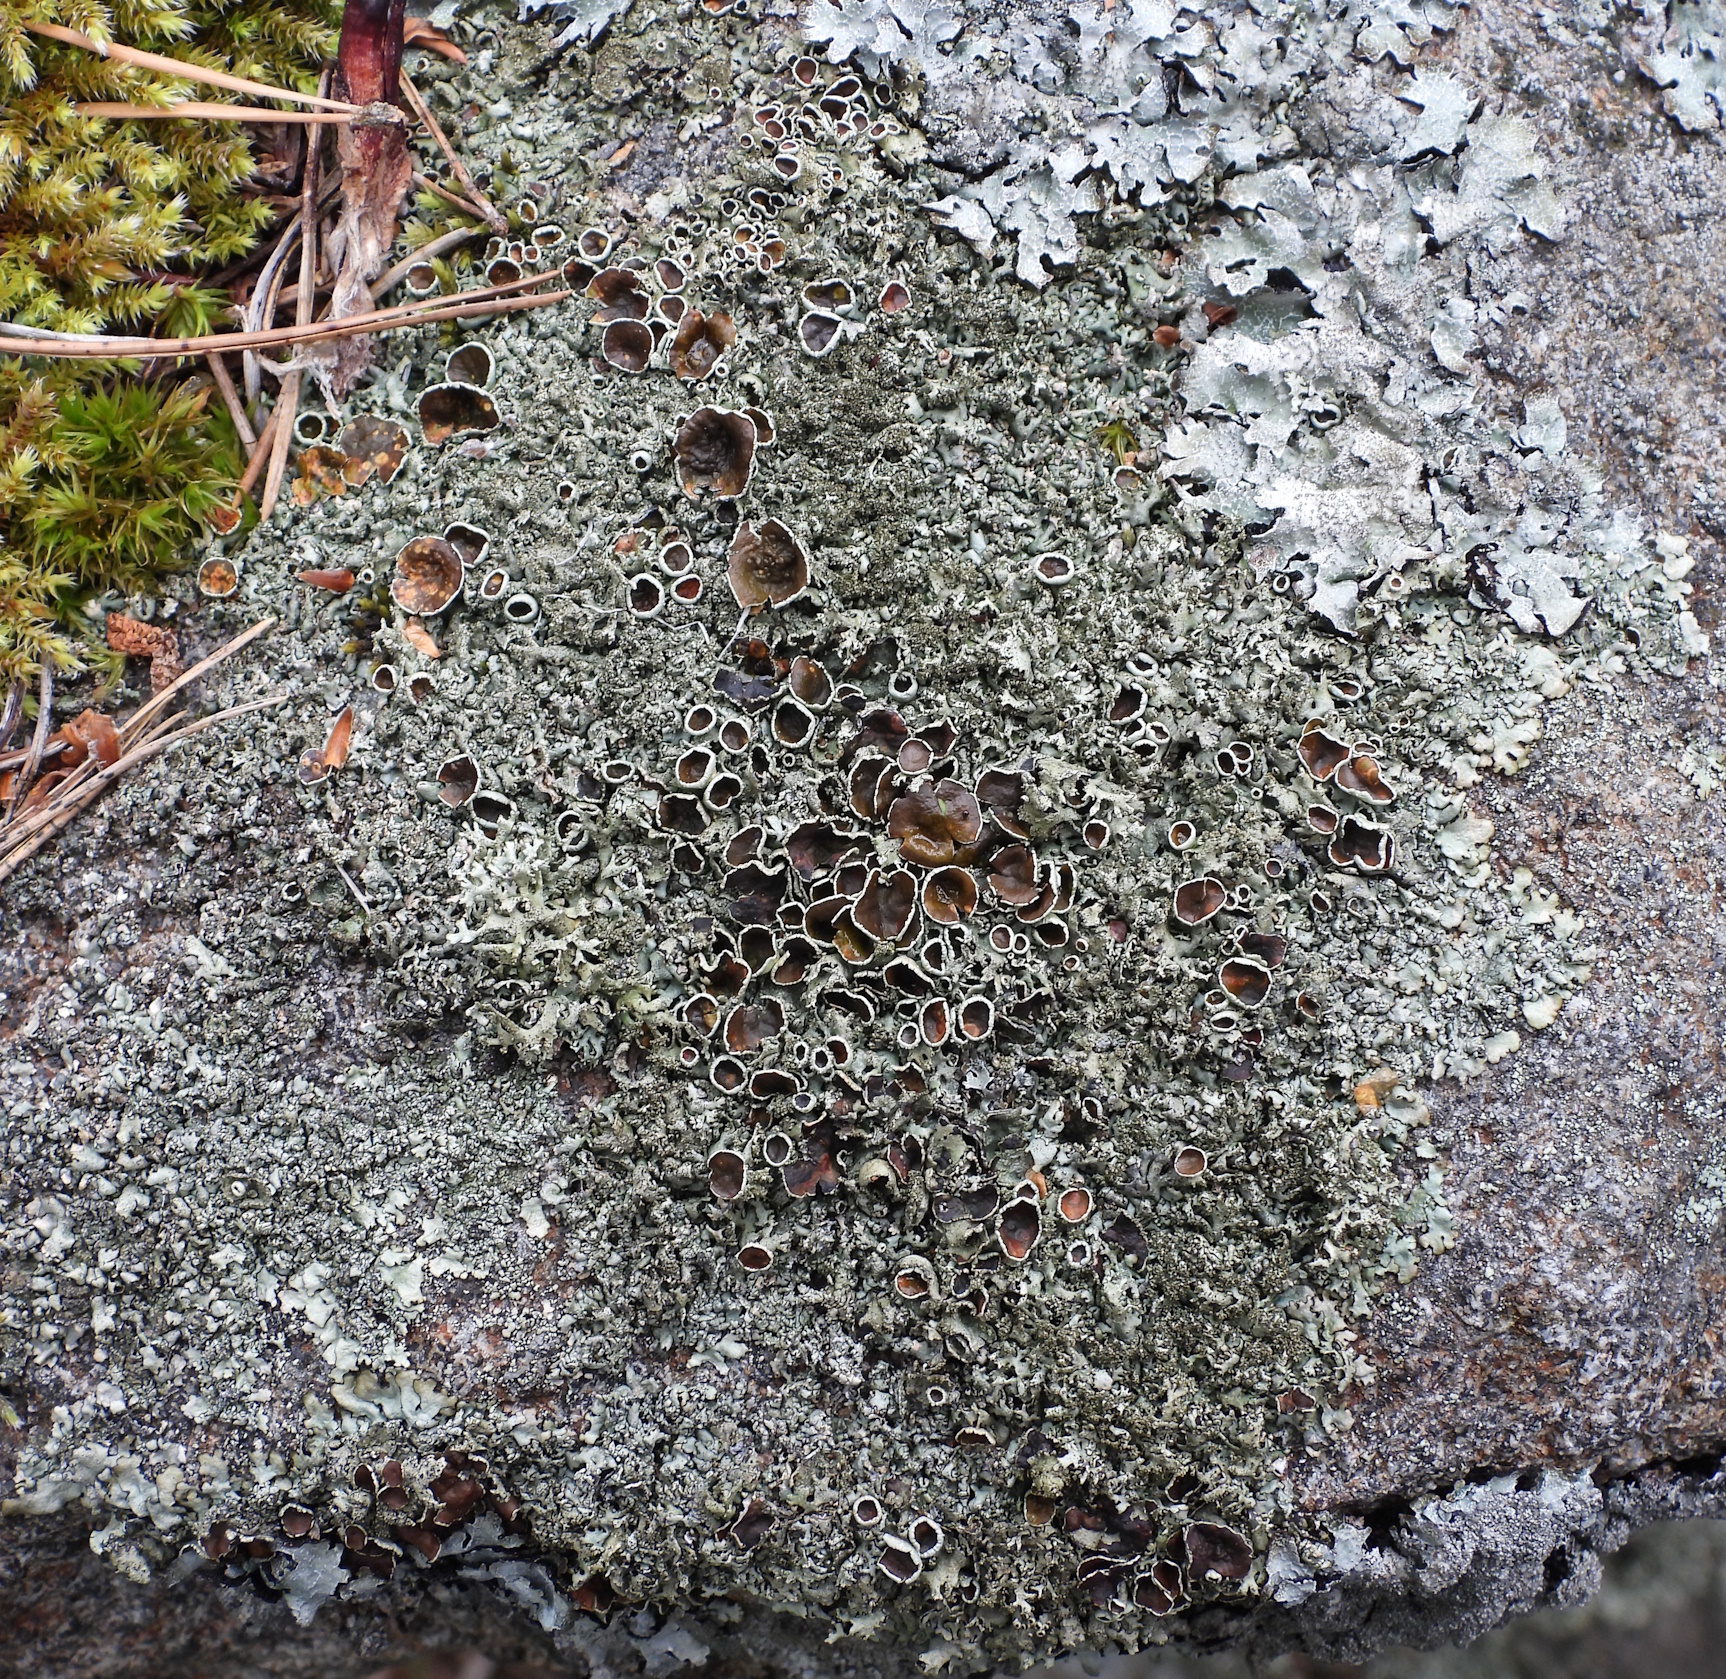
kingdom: Fungi
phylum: Ascomycota
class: Lecanoromycetes
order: Lecanorales
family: Parmeliaceae
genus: Xanthoparmelia
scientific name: Xanthoparmelia conspersa
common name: Peppered rock shield
